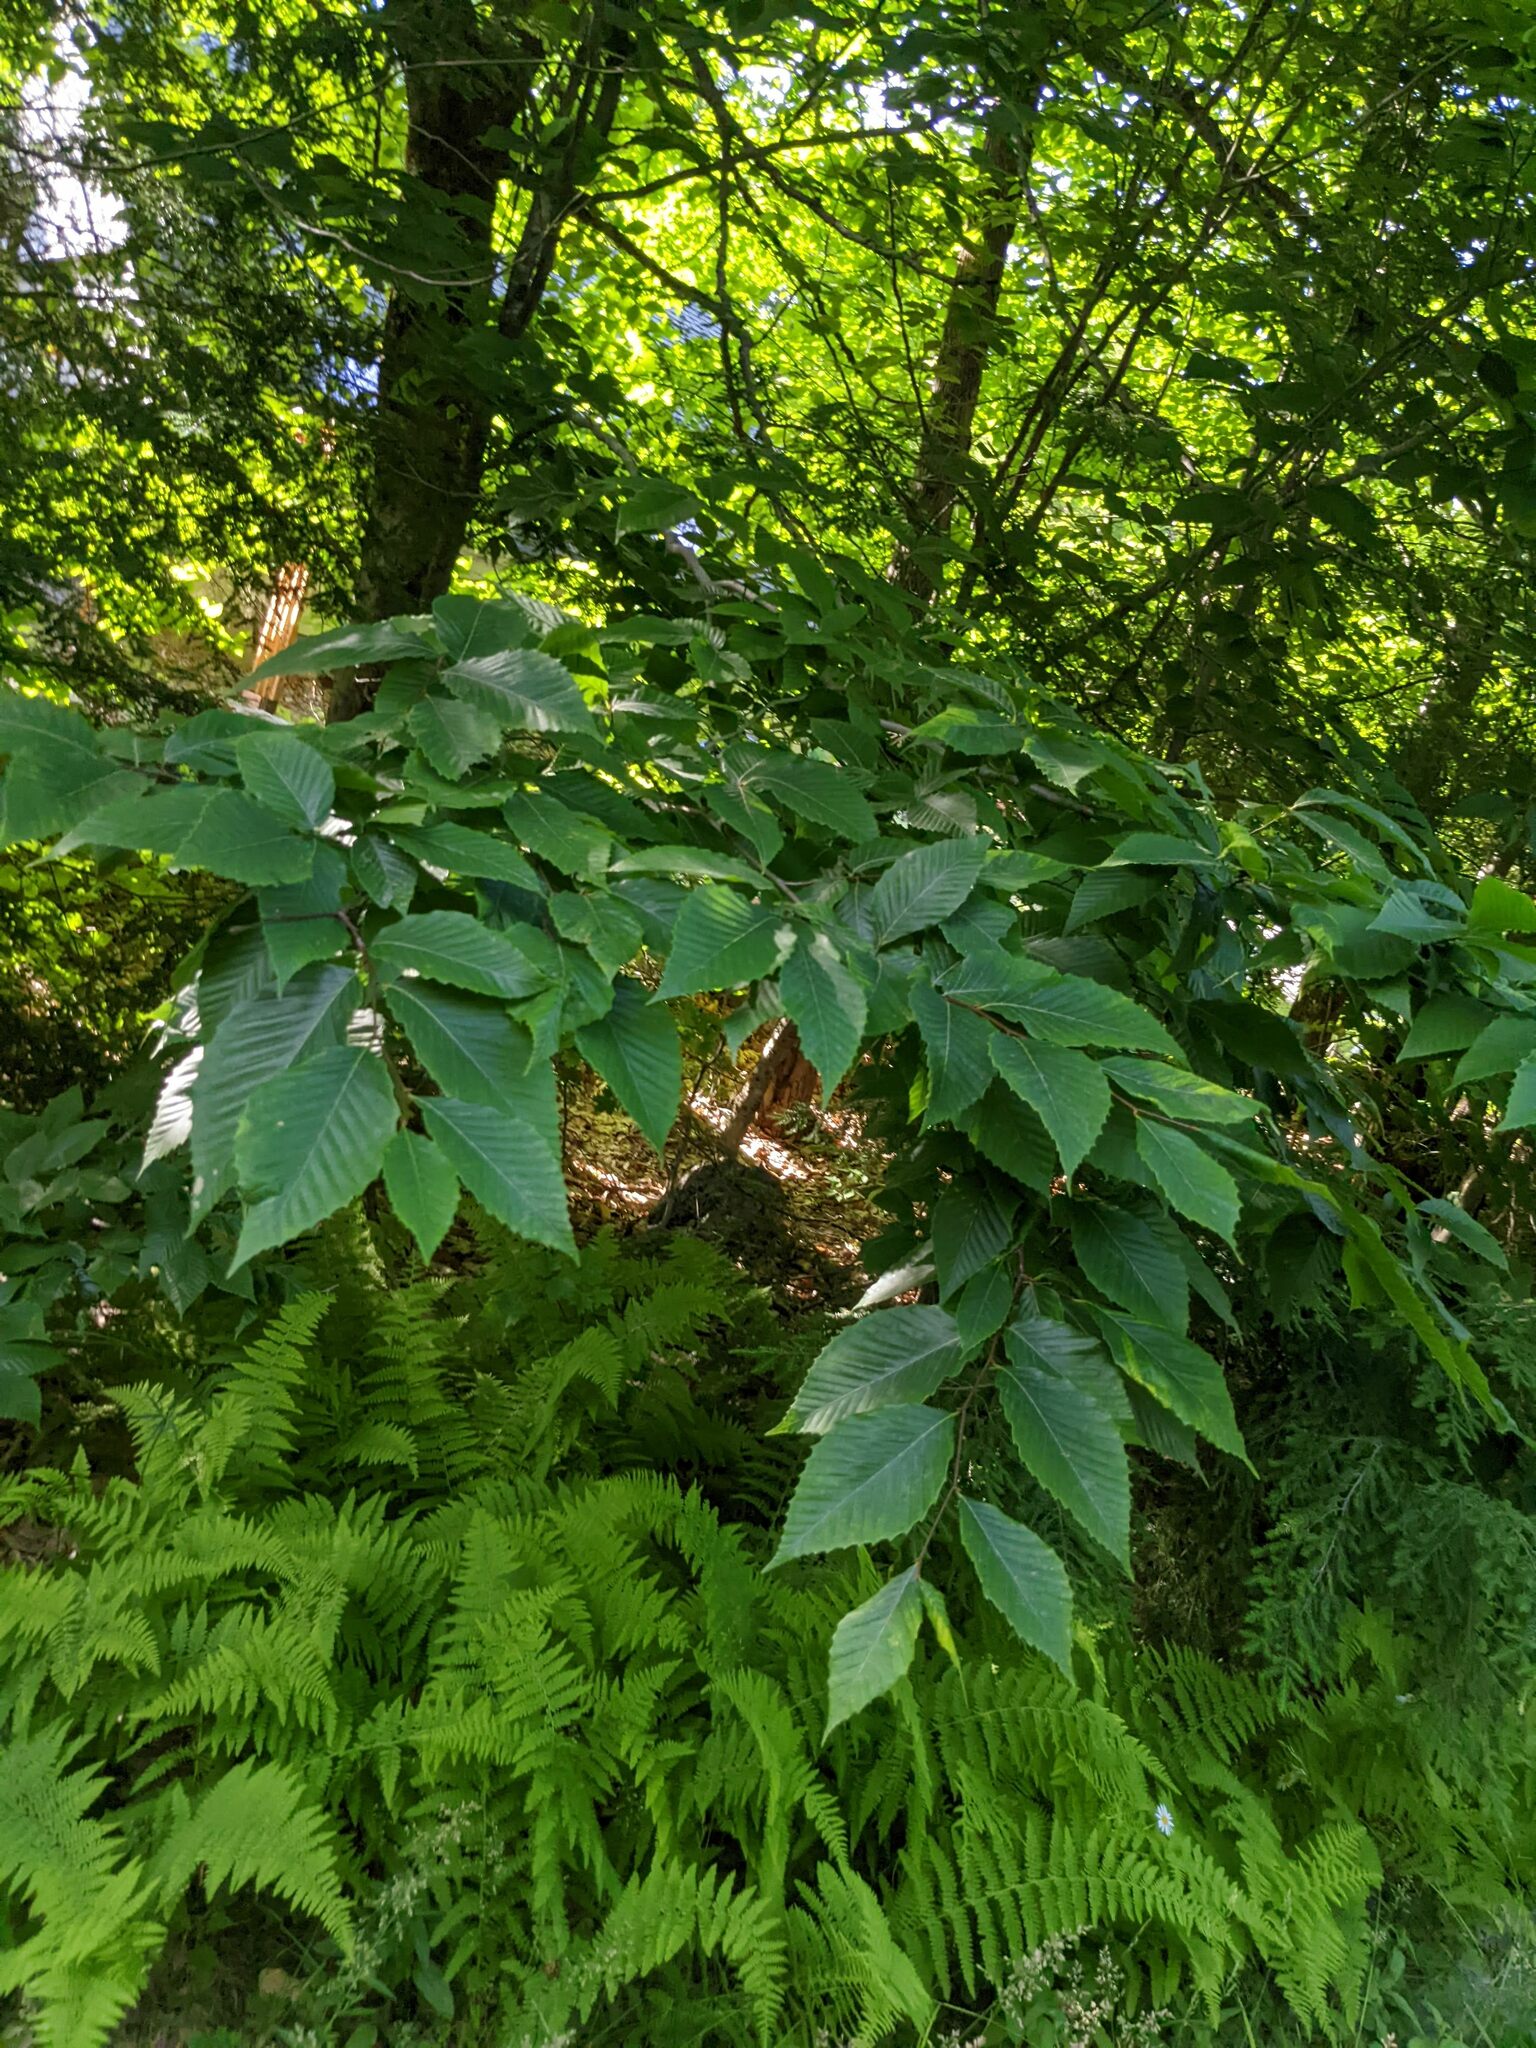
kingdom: Plantae
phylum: Tracheophyta
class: Magnoliopsida
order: Fagales
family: Fagaceae
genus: Fagus
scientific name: Fagus grandifolia
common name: American beech
